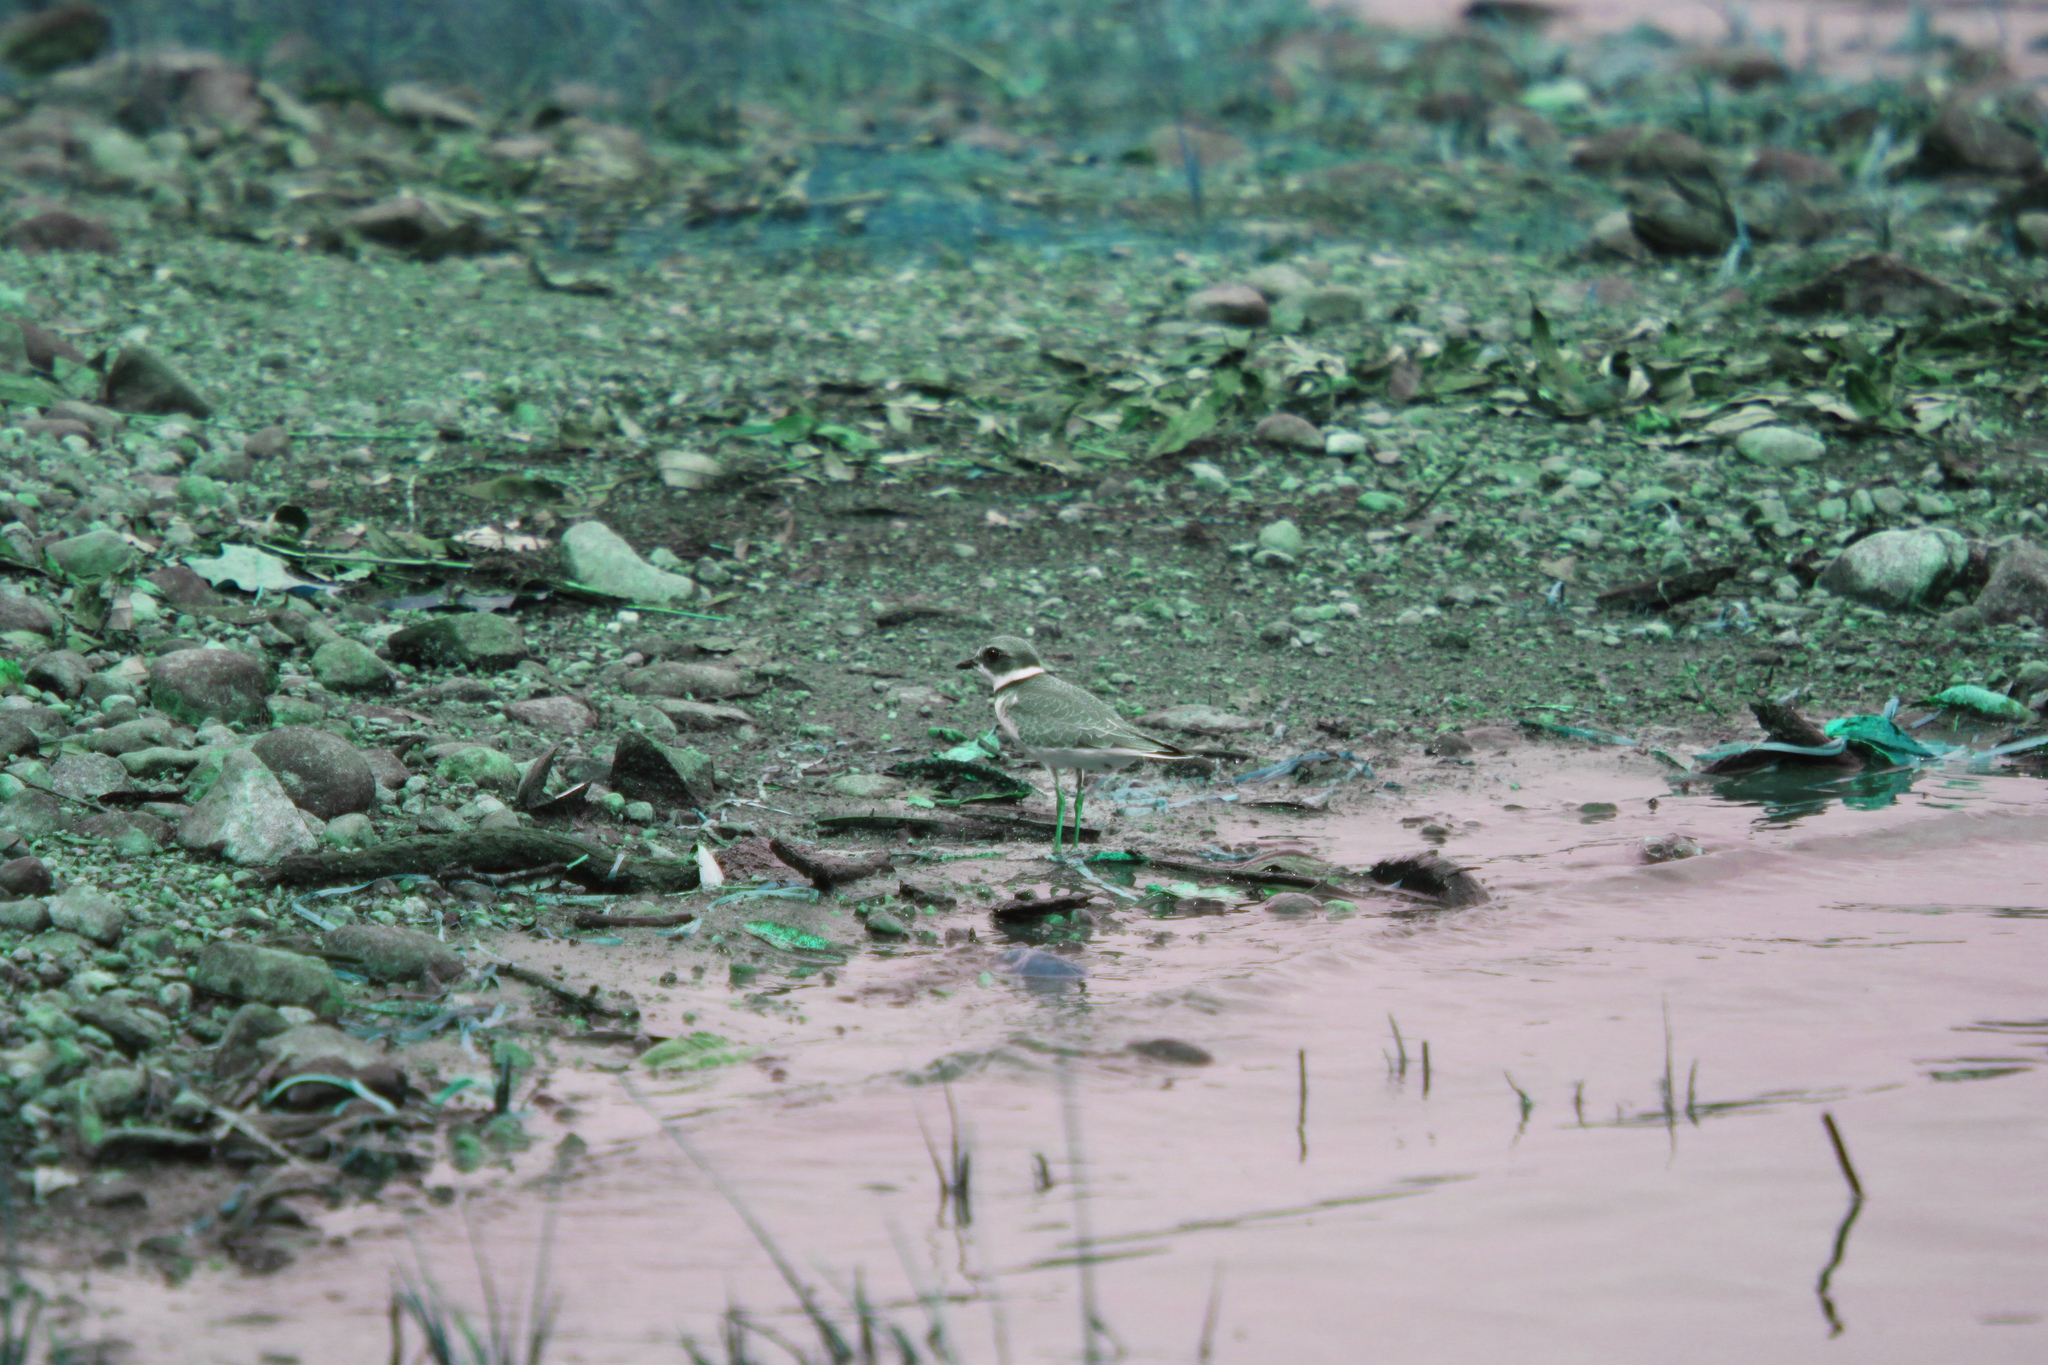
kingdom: Animalia
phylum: Chordata
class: Aves
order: Charadriiformes
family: Charadriidae
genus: Charadrius
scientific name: Charadrius semipalmatus
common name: Semipalmated plover
